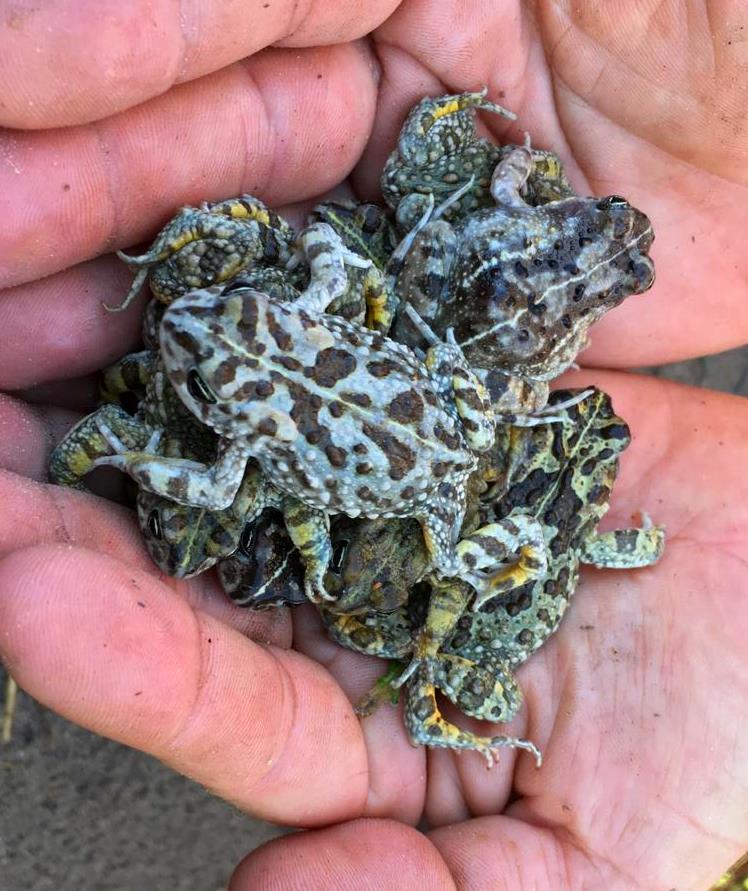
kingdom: Animalia
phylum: Chordata
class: Amphibia
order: Anura
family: Bufonidae
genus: Vandijkophrynus
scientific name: Vandijkophrynus angusticeps
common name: Sand toad
